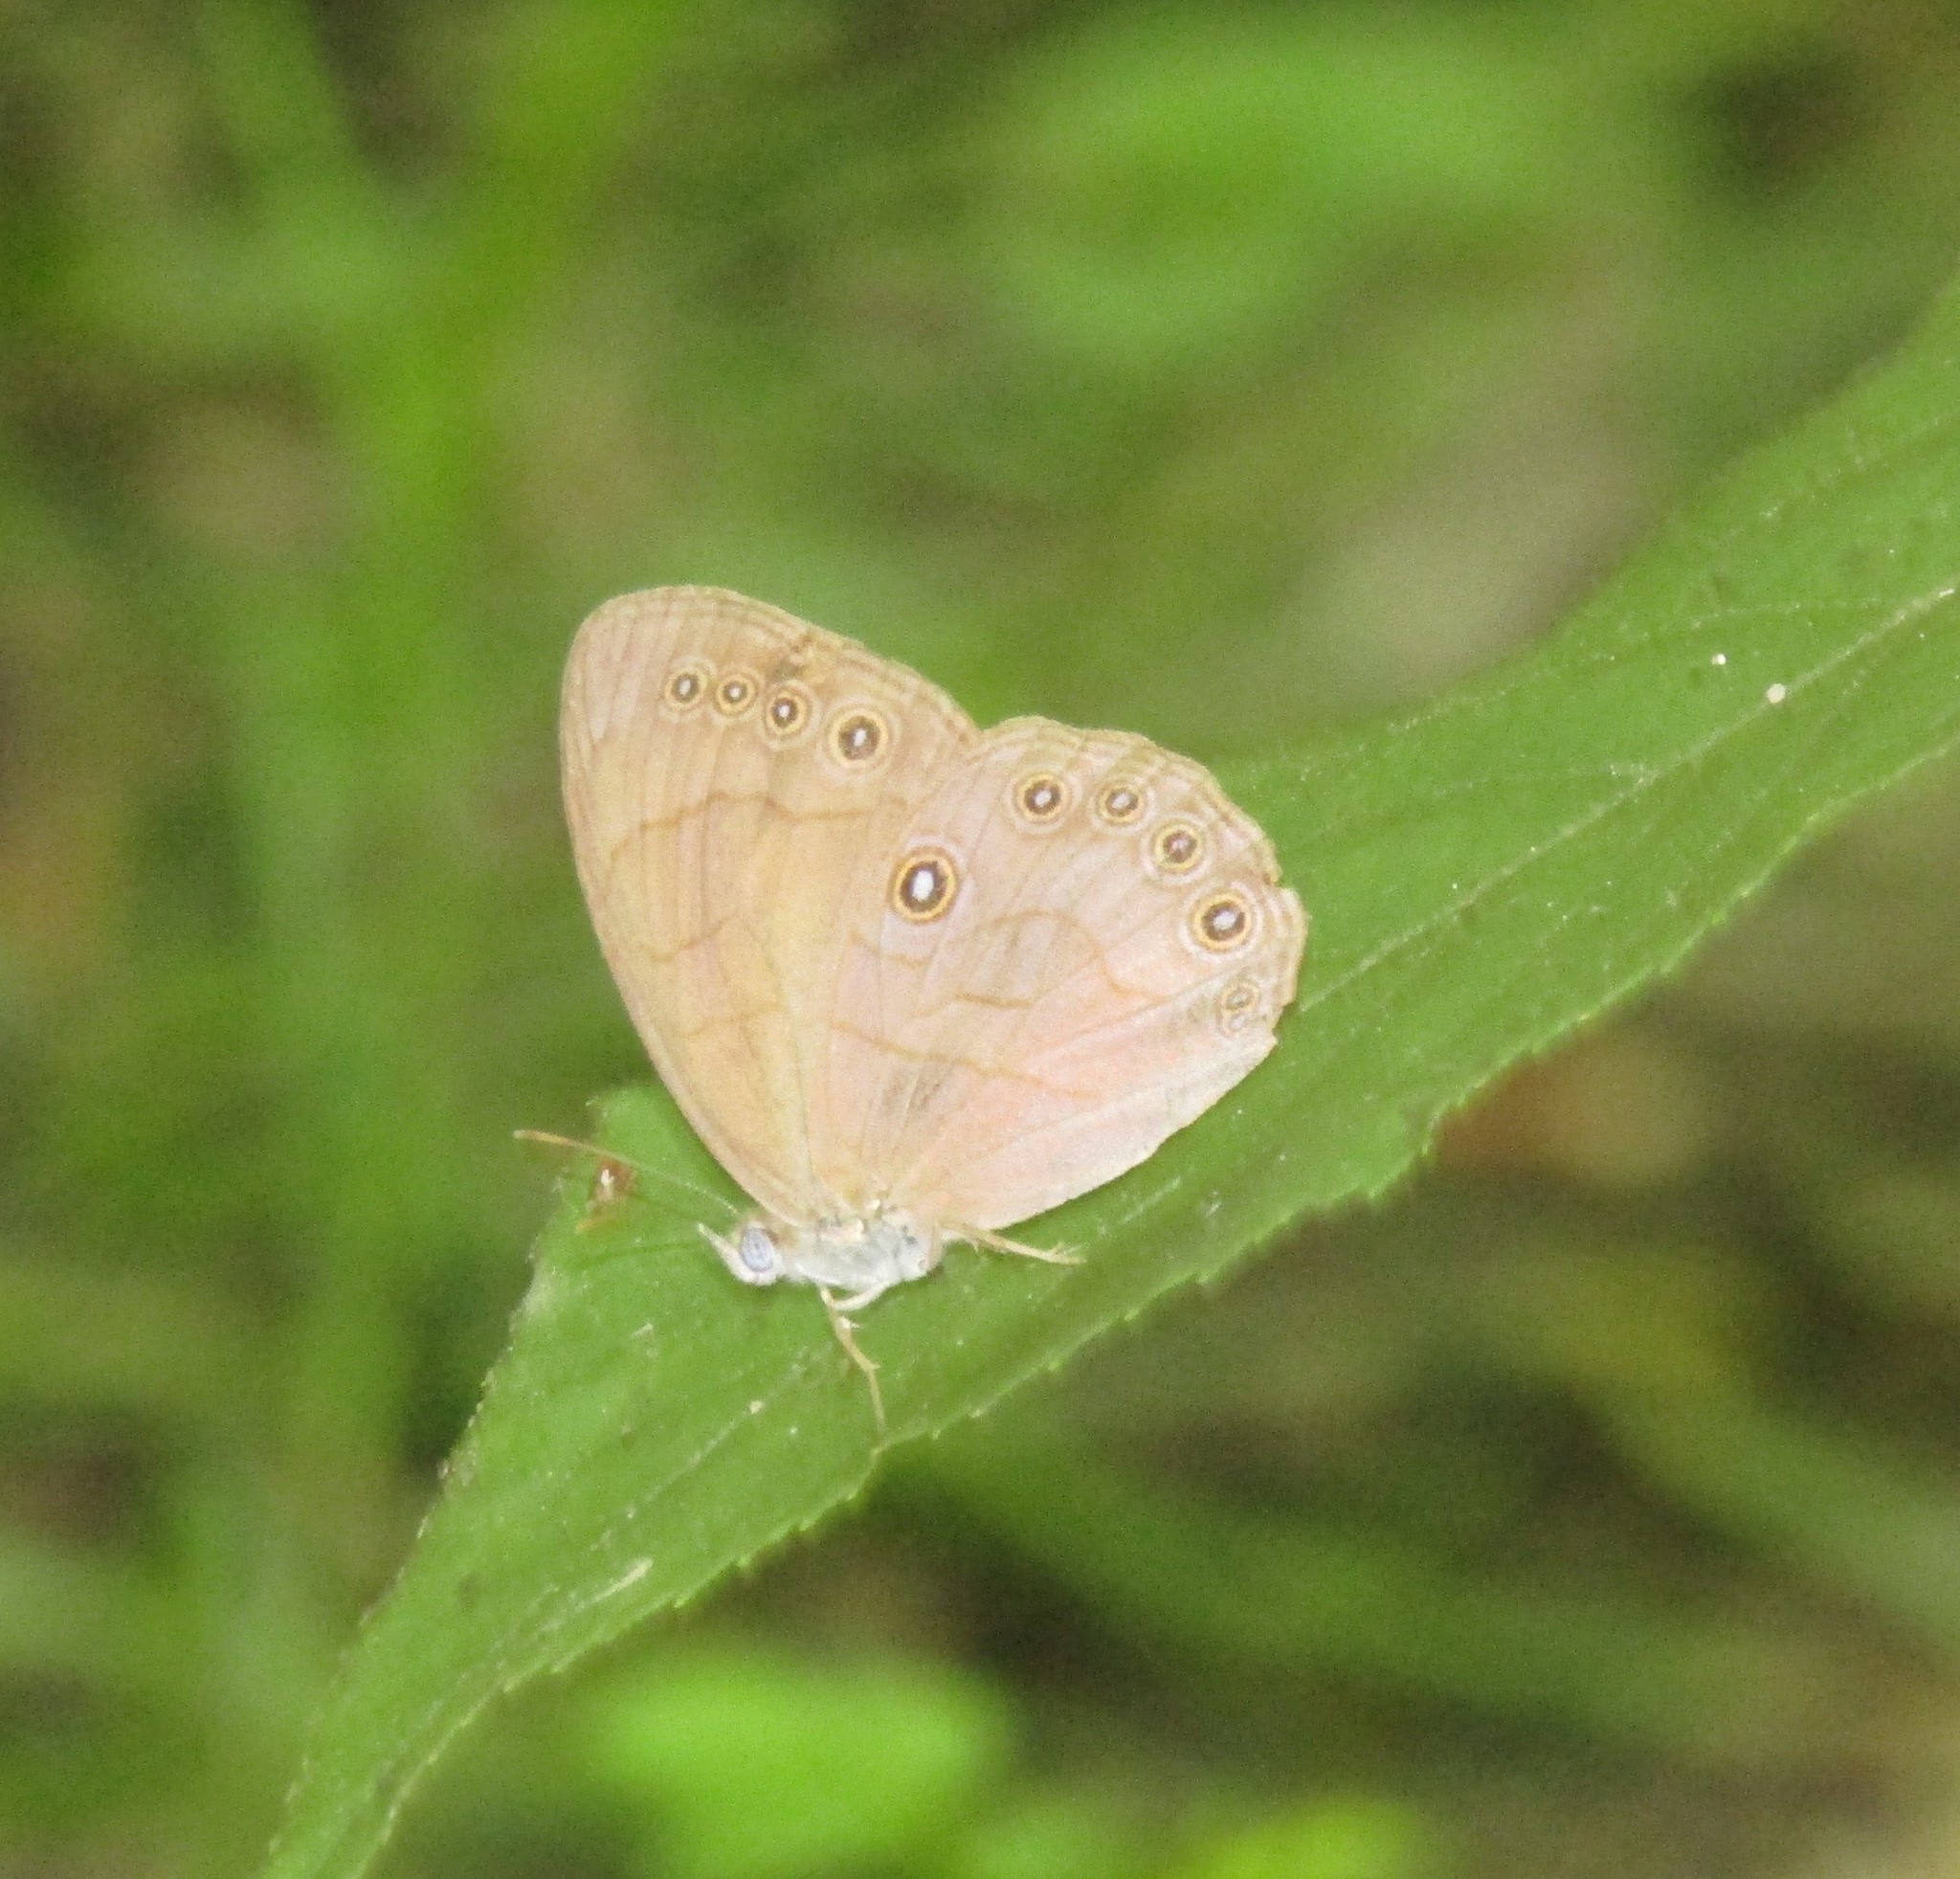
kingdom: Animalia
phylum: Arthropoda
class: Insecta
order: Lepidoptera
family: Nymphalidae
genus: Lethe
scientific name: Lethe eurydice
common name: Eyed brown
